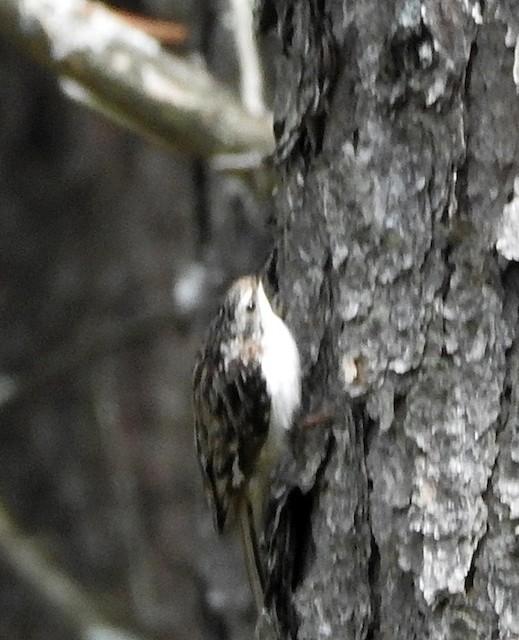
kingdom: Animalia
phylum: Chordata
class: Aves
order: Passeriformes
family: Certhiidae
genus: Certhia
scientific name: Certhia americana
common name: Brown creeper
